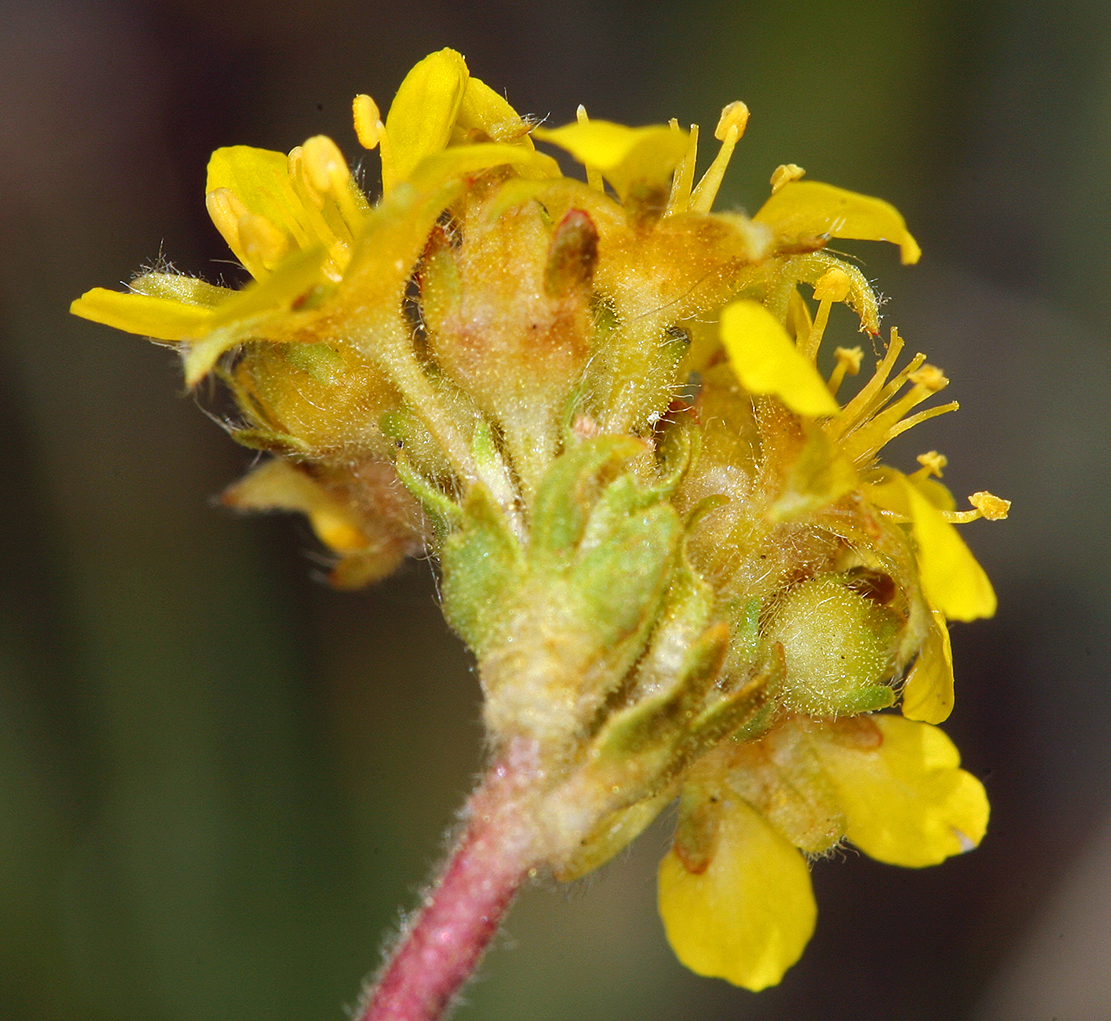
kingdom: Plantae
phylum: Tracheophyta
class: Magnoliopsida
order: Rosales
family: Rosaceae
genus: Potentilla
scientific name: Potentilla lycopodioides
